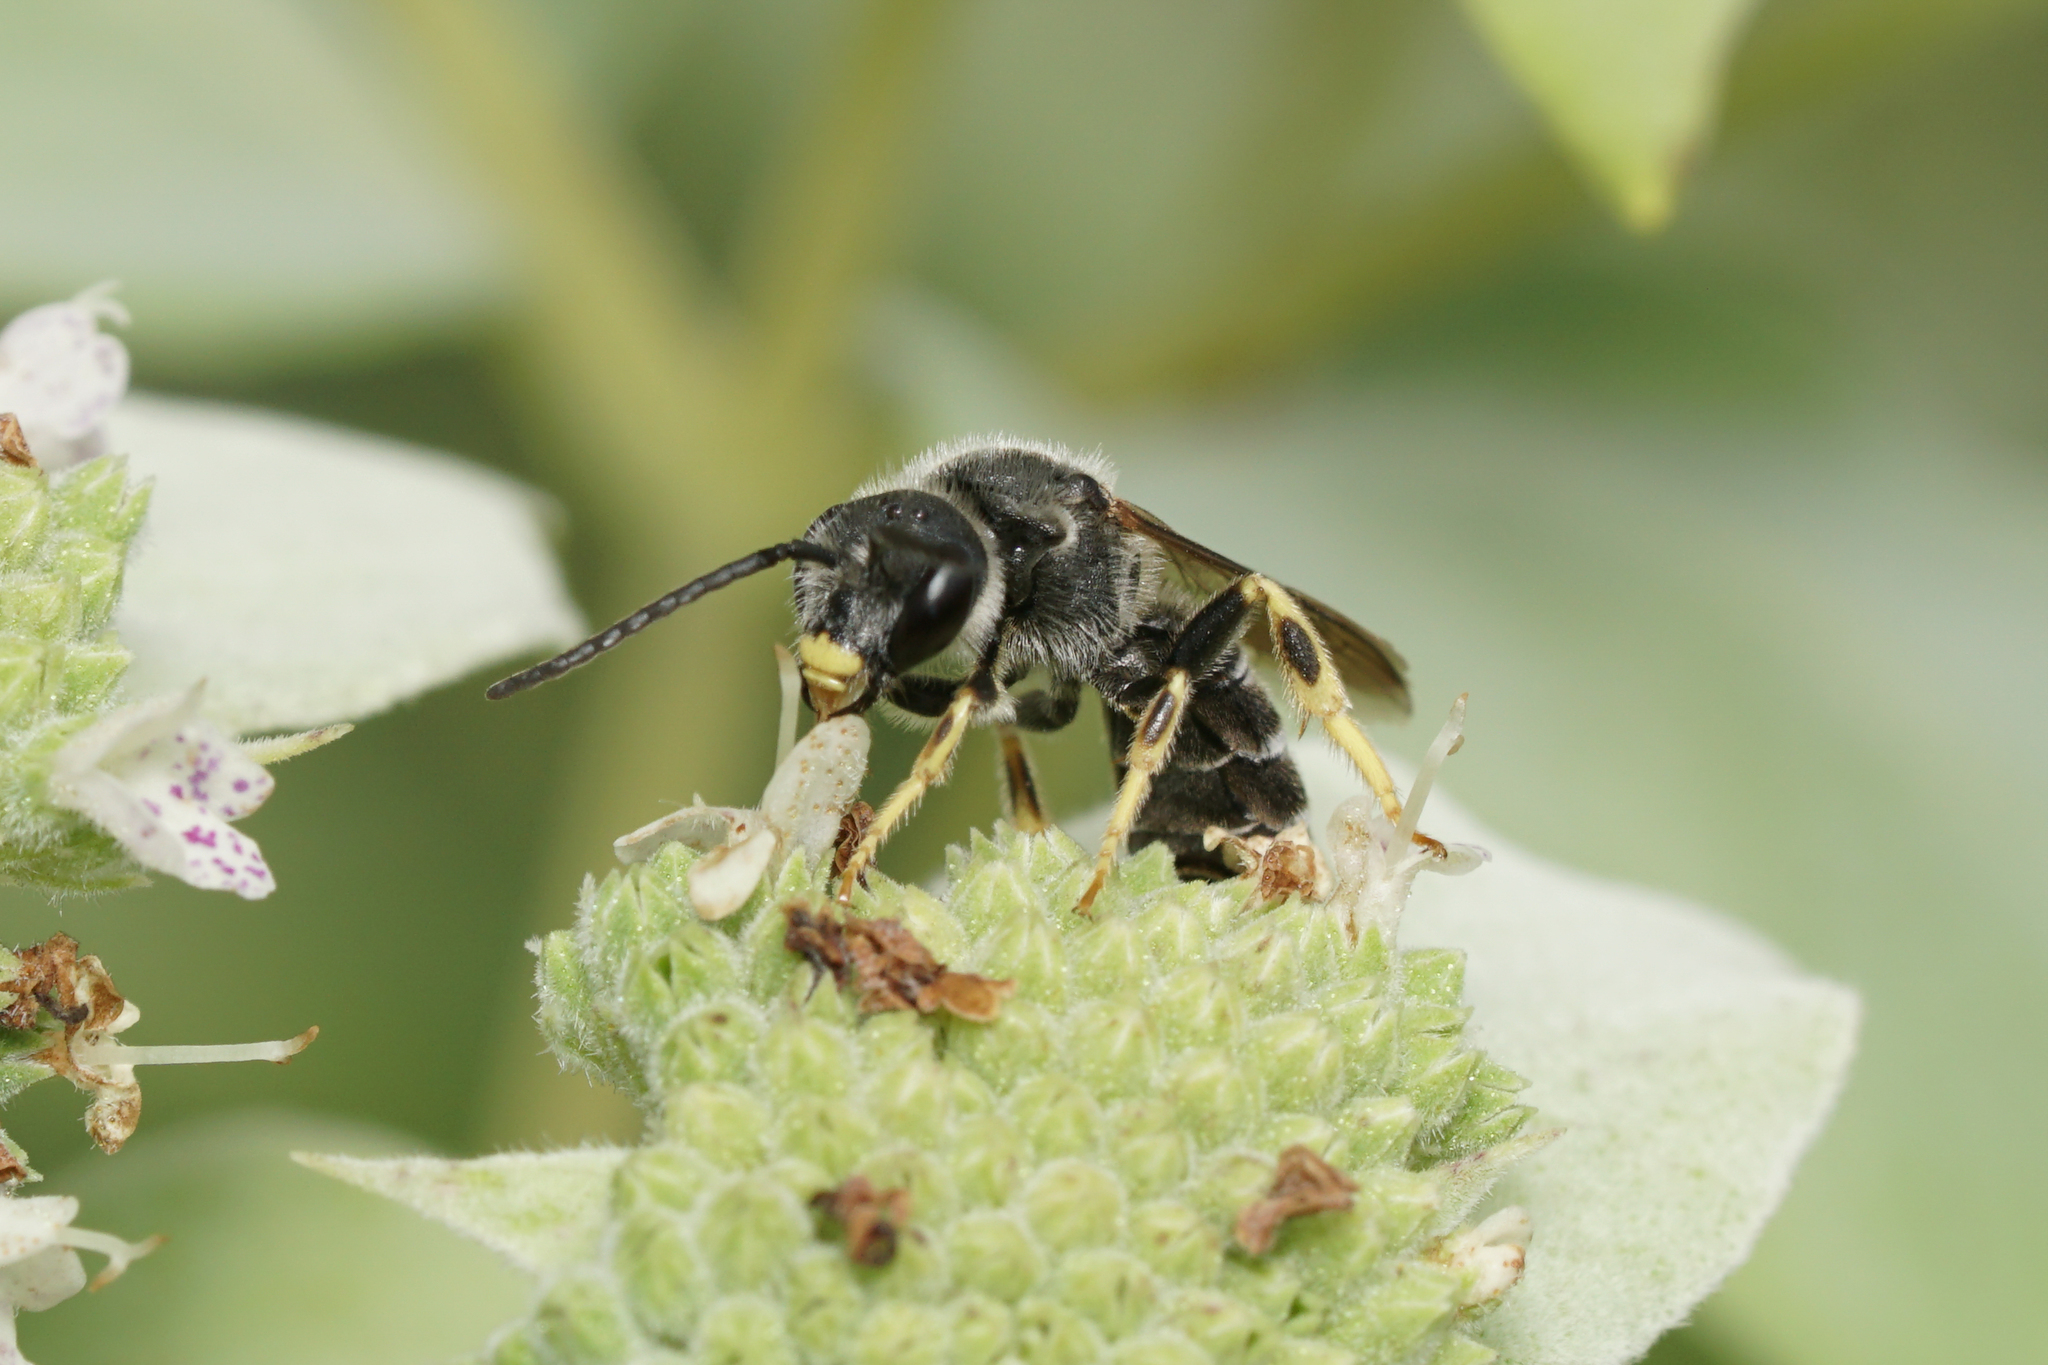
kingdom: Animalia
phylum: Arthropoda
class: Insecta
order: Hymenoptera
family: Halictidae
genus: Halictus
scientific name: Halictus rubicundus
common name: Orange-legged furrow bee
